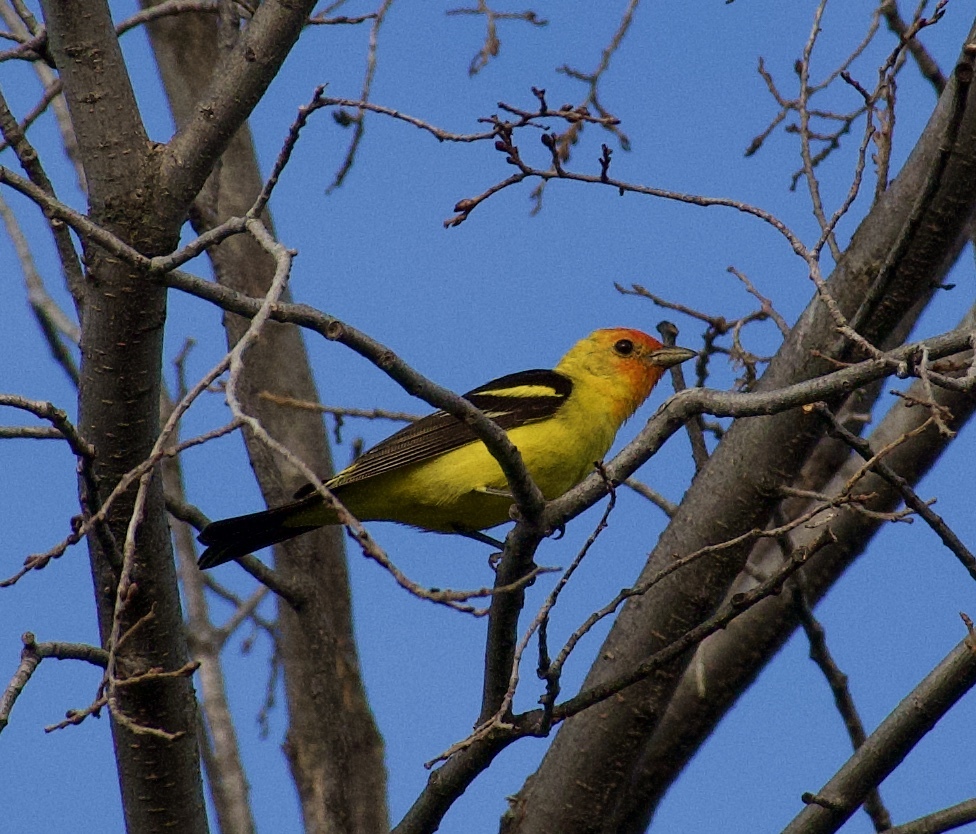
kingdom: Animalia
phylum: Chordata
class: Aves
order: Passeriformes
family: Cardinalidae
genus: Piranga
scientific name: Piranga ludoviciana
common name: Western tanager
